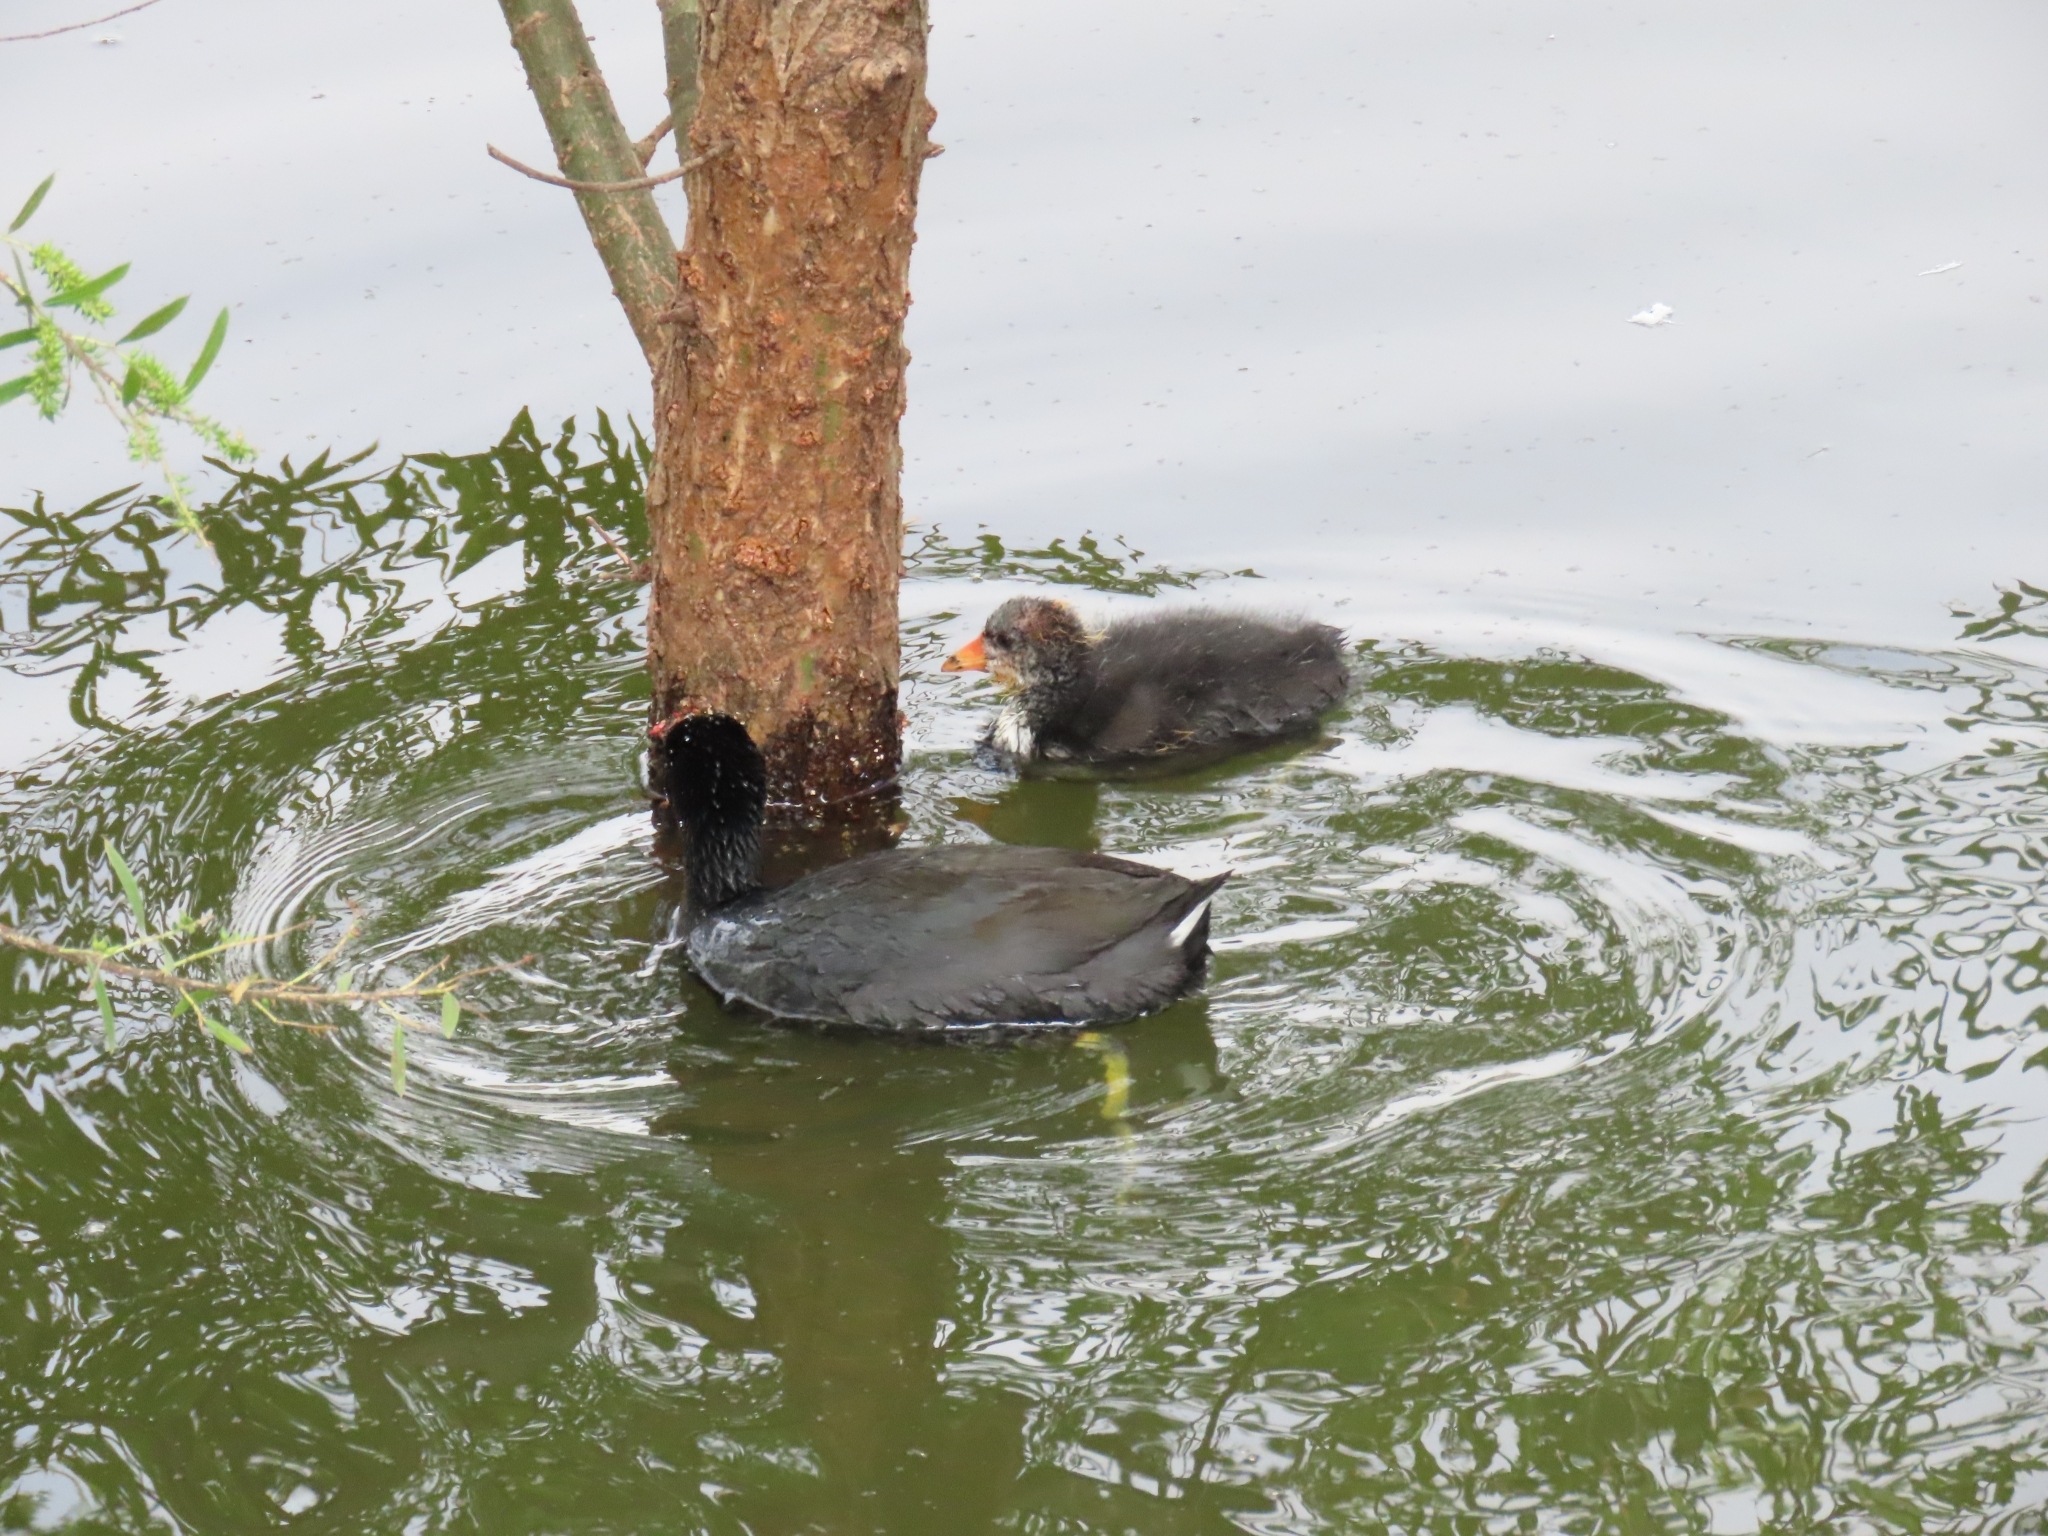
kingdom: Animalia
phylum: Chordata
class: Aves
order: Gruiformes
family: Rallidae
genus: Fulica
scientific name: Fulica americana
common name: American coot
